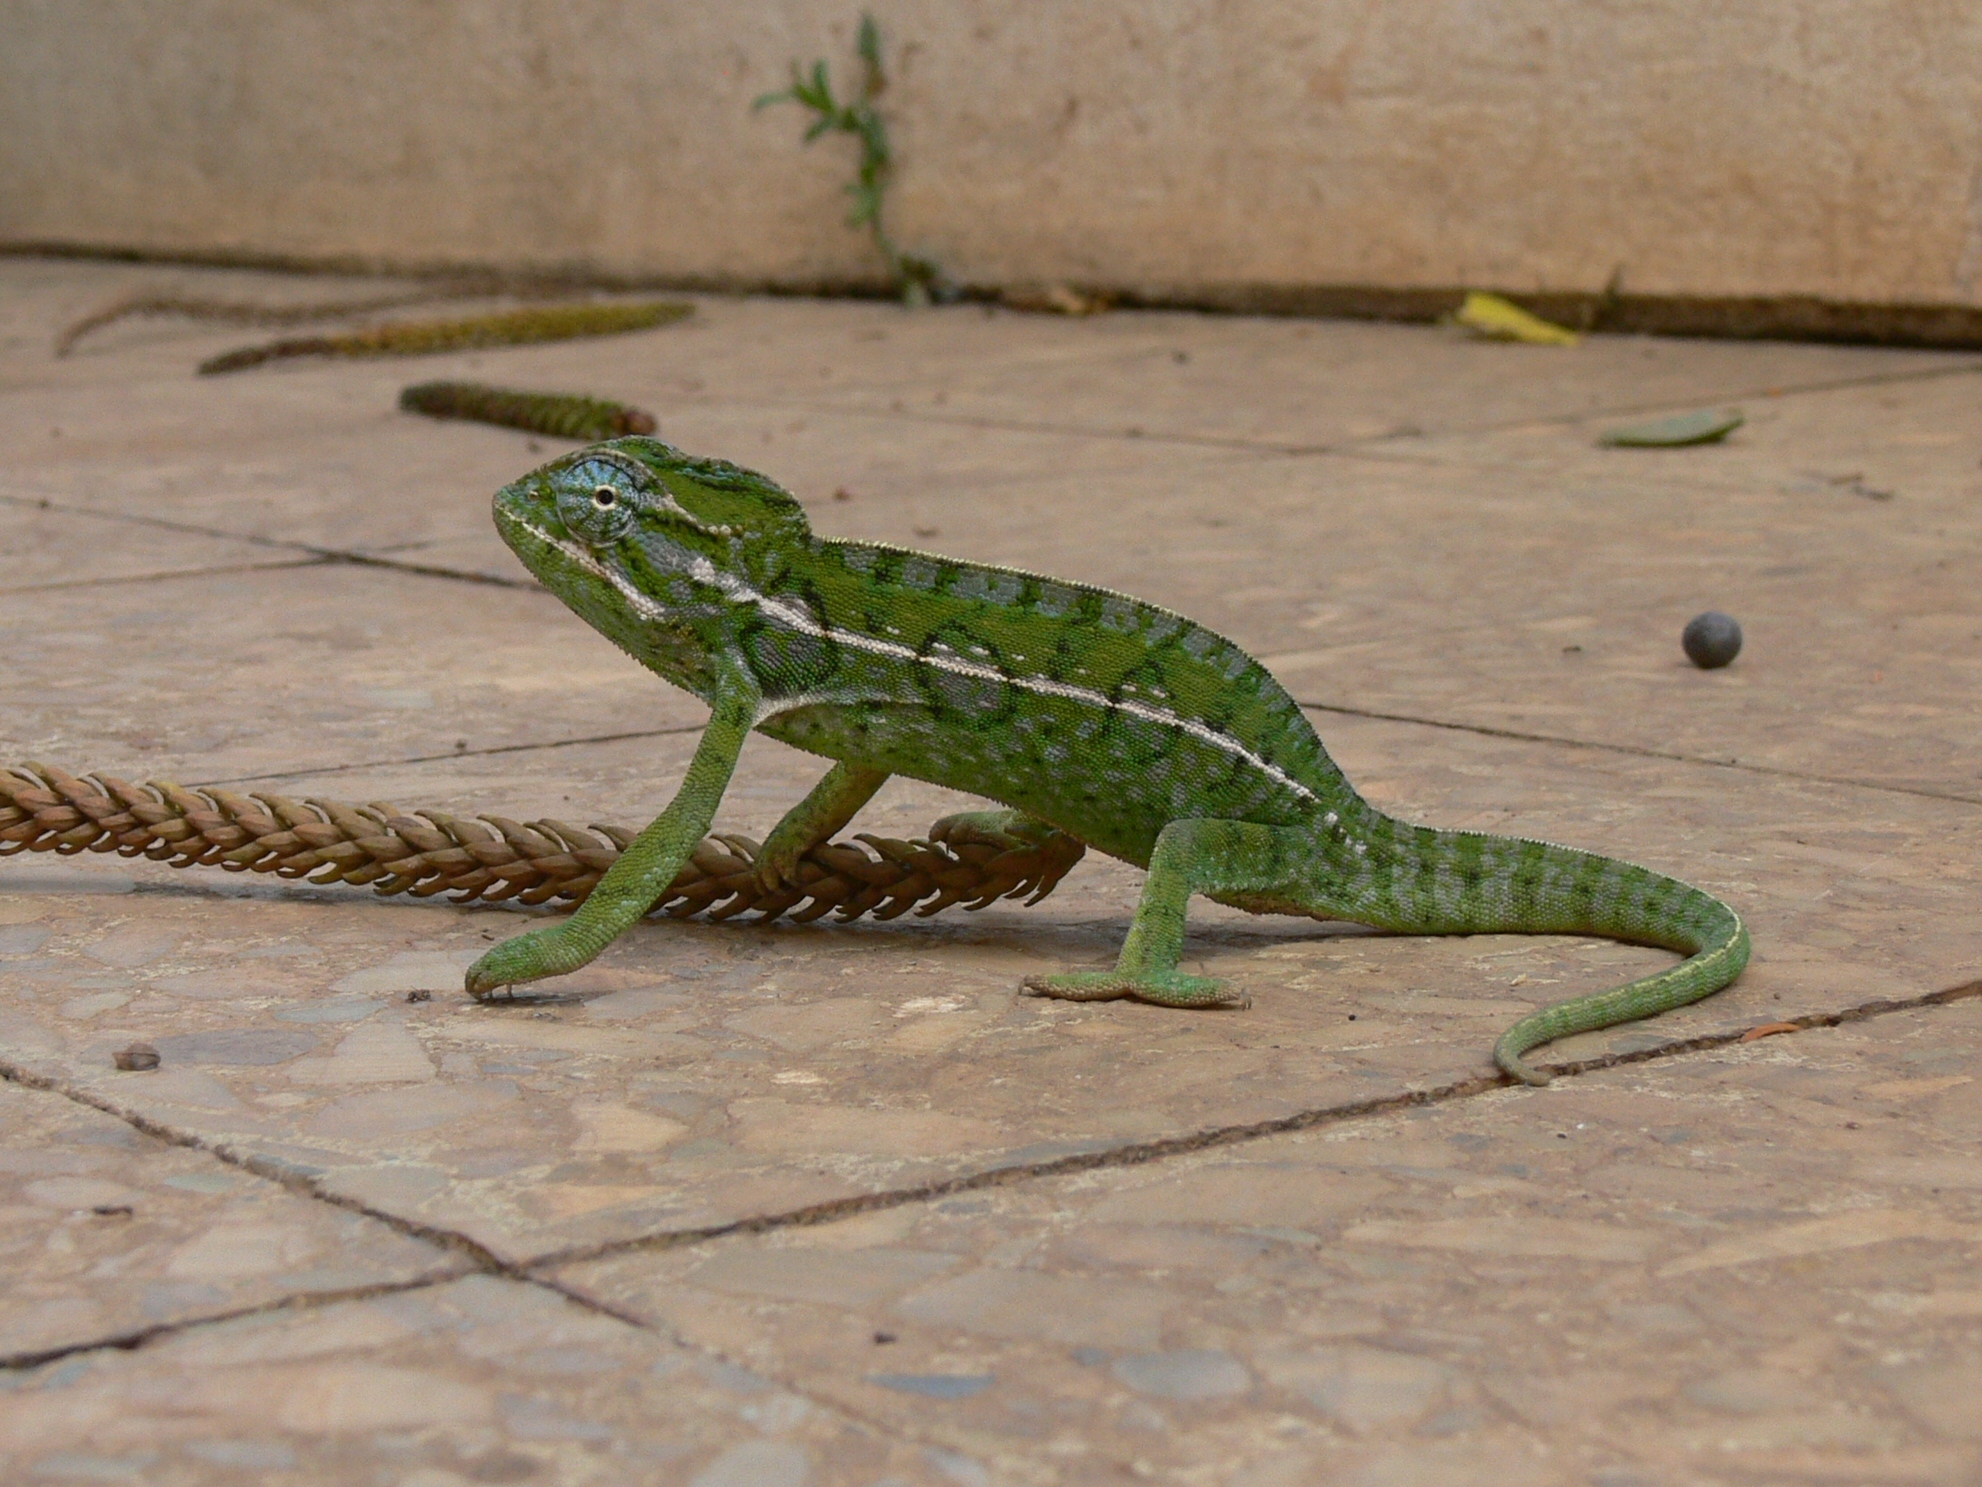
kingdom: Animalia
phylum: Chordata
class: Squamata
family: Chamaeleonidae
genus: Furcifer
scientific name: Furcifer lateralis
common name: Carpet chameleon
